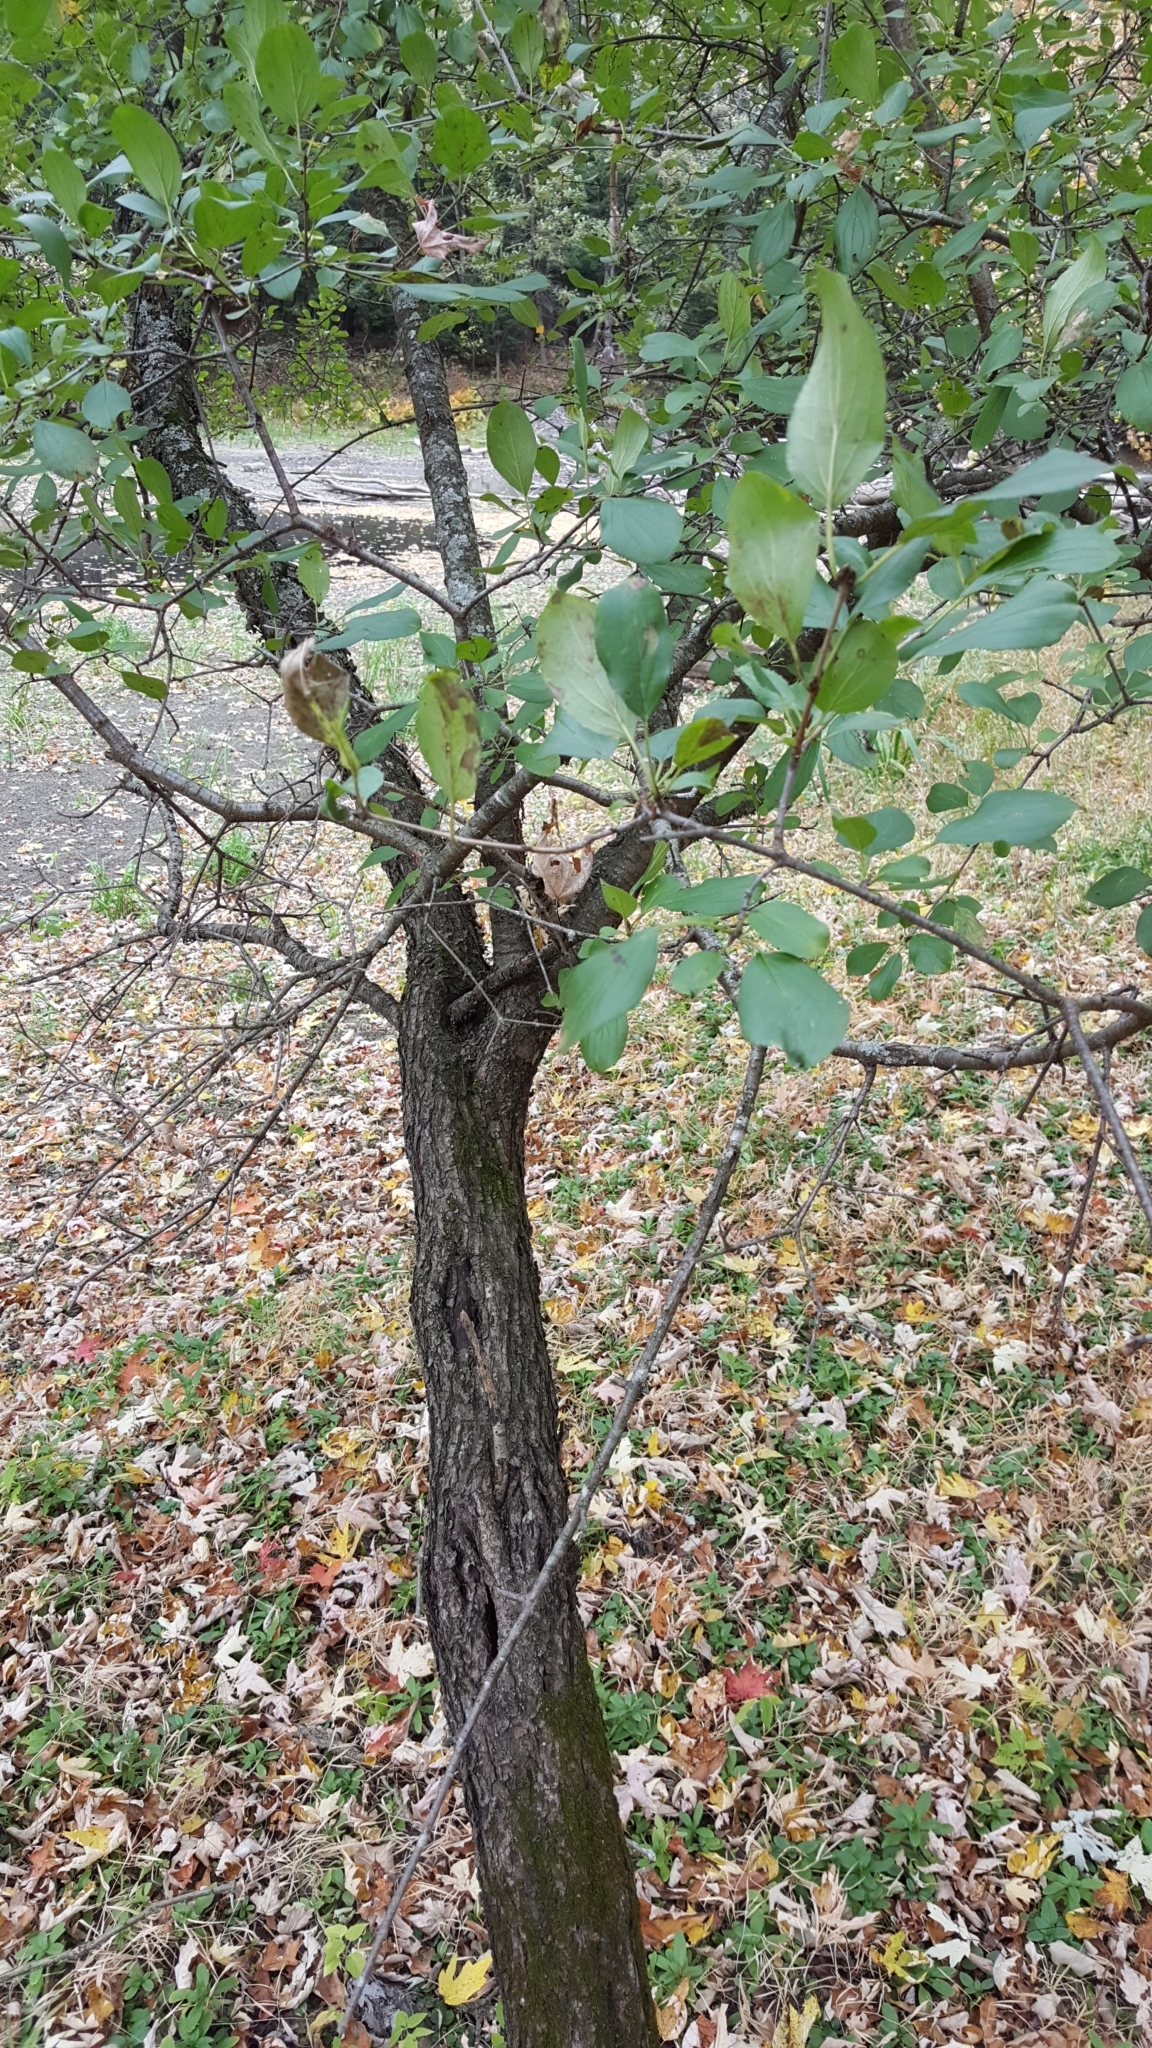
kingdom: Plantae
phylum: Tracheophyta
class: Magnoliopsida
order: Rosales
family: Rhamnaceae
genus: Rhamnus
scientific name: Rhamnus cathartica
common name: Common buckthorn
